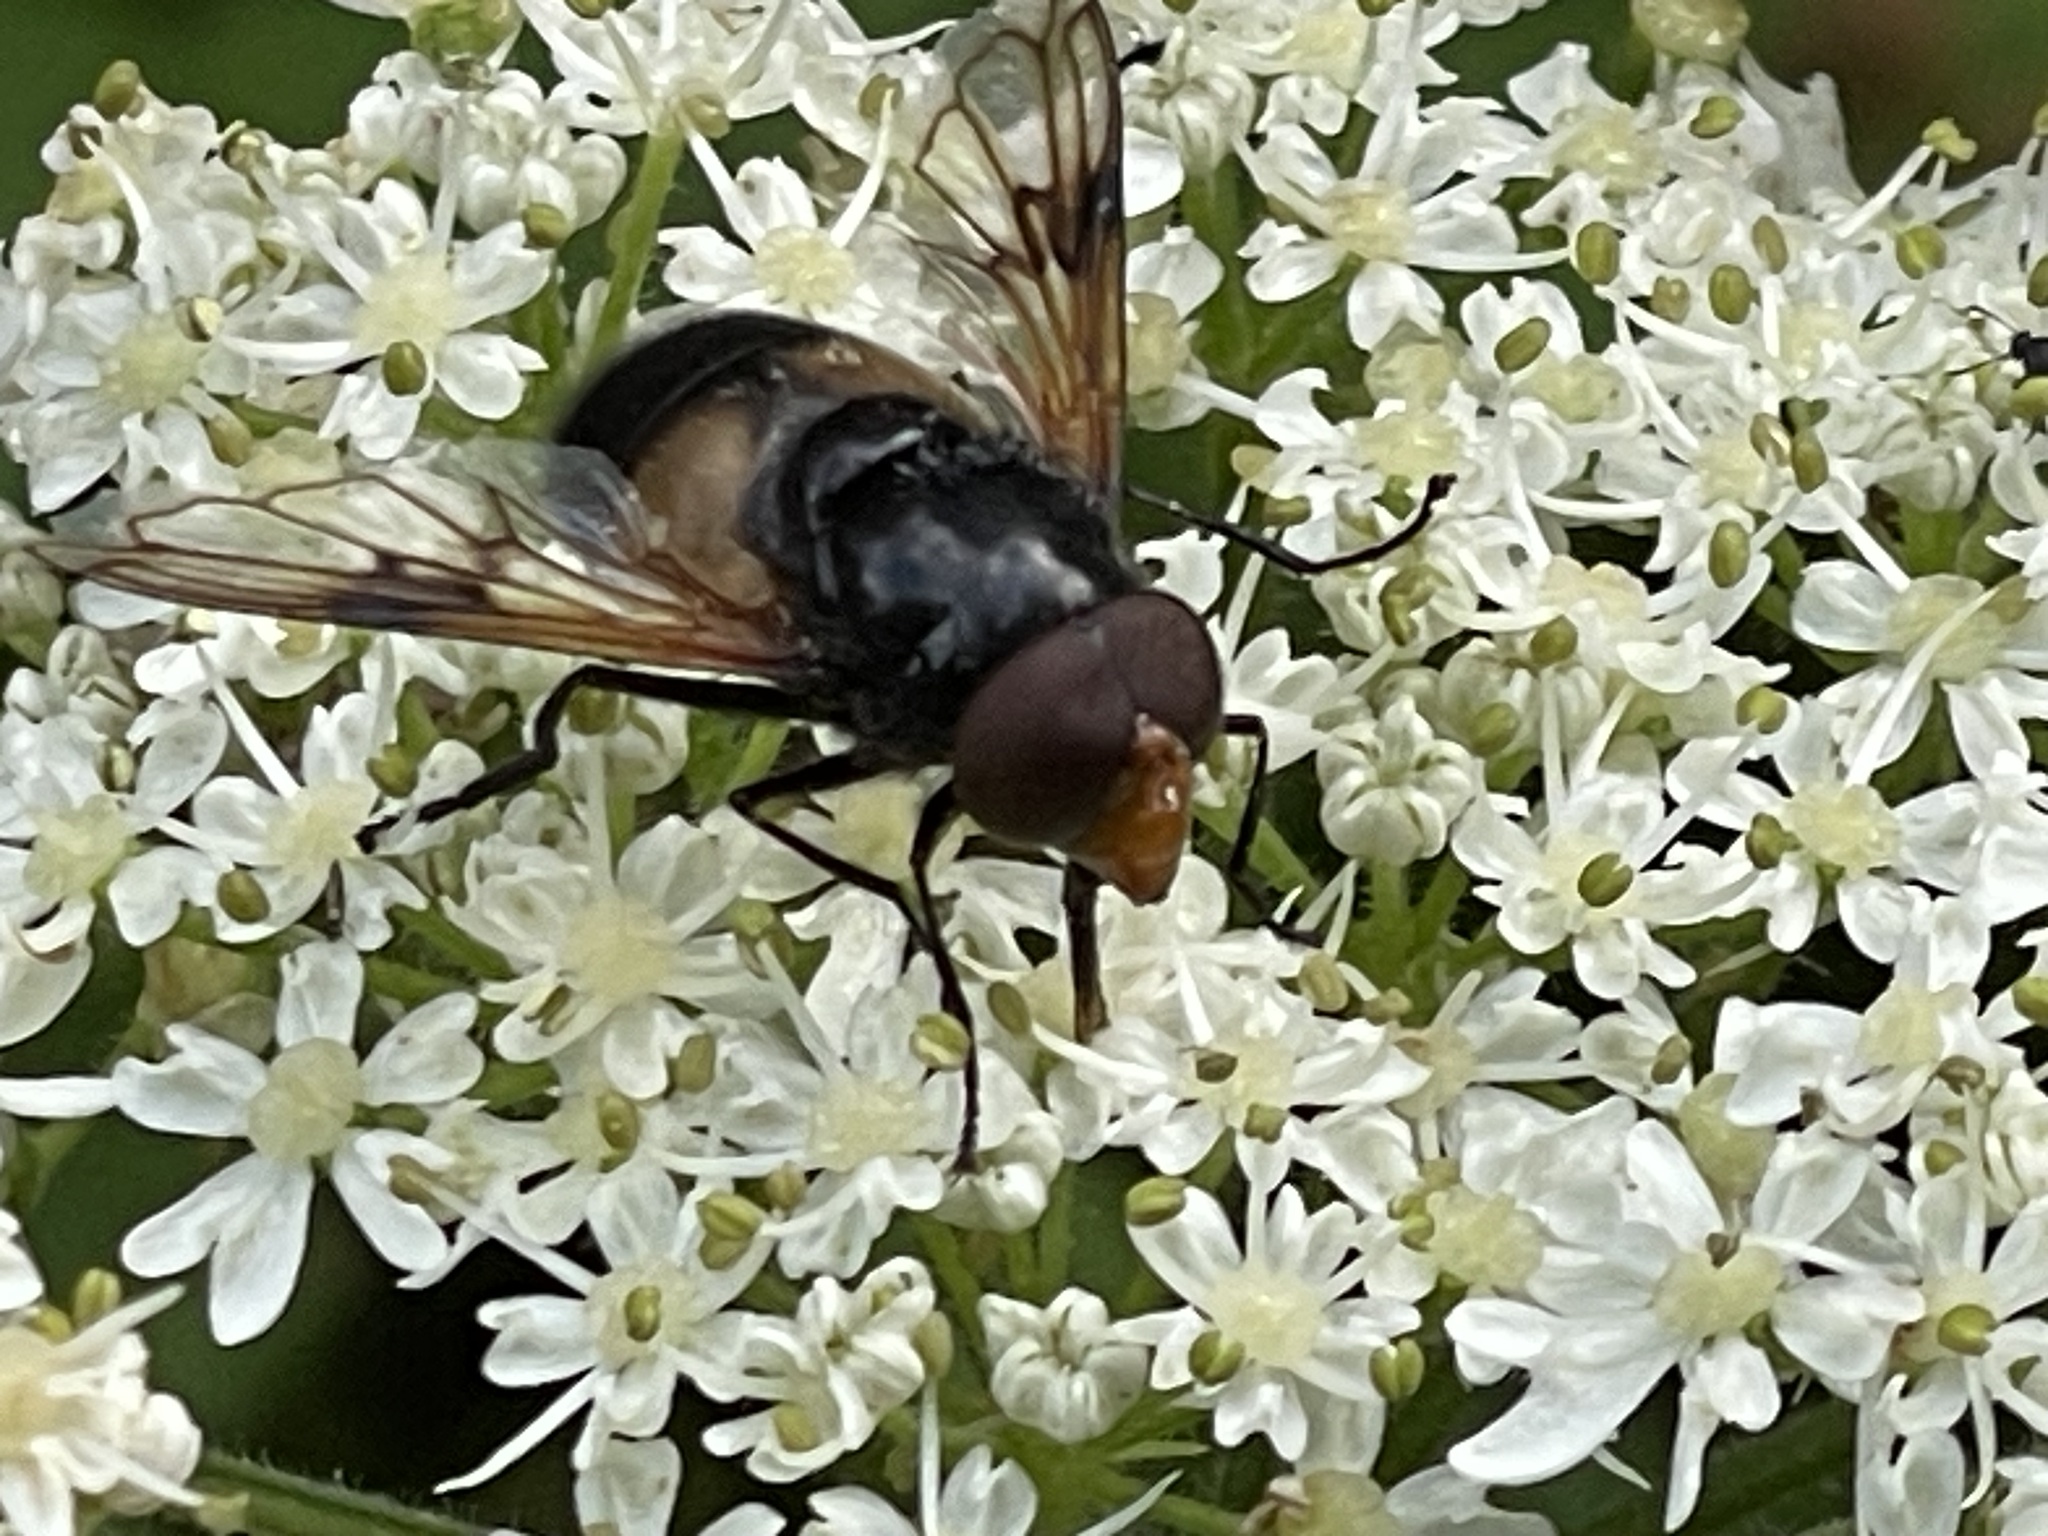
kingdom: Animalia
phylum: Arthropoda
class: Insecta
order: Diptera
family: Syrphidae
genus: Volucella
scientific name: Volucella pellucens
